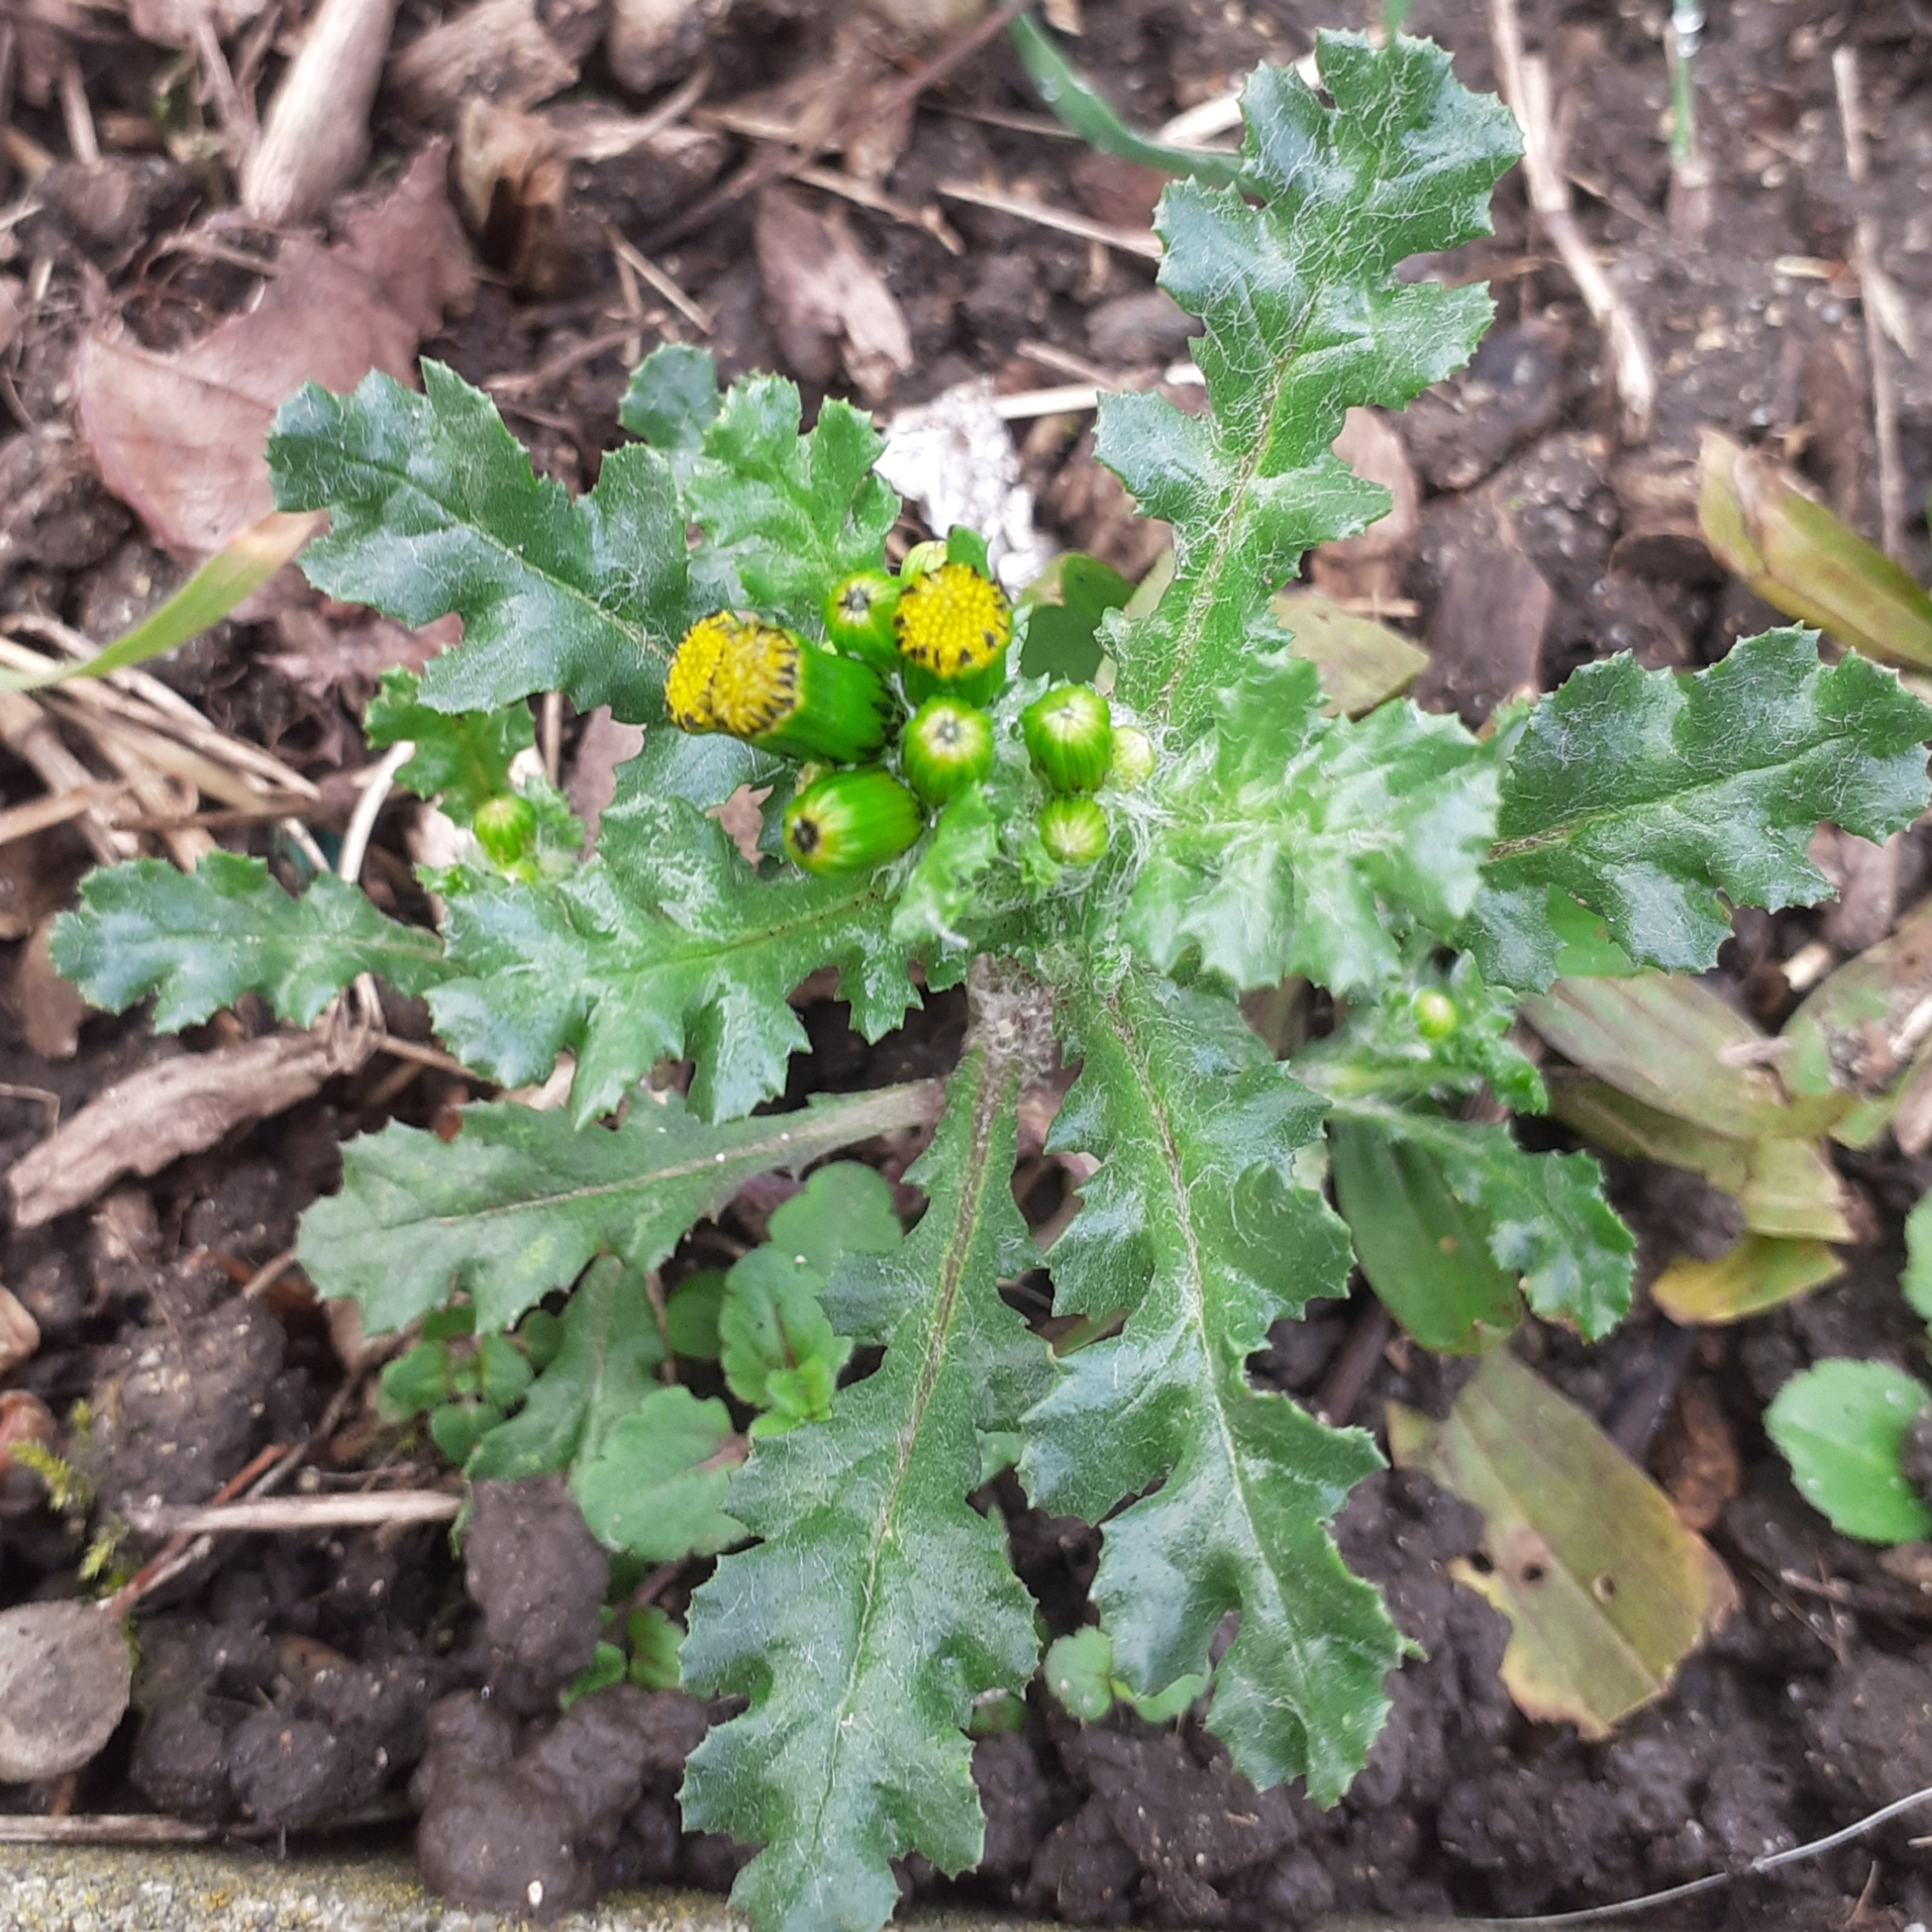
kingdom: Plantae
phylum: Tracheophyta
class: Magnoliopsida
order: Asterales
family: Asteraceae
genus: Senecio
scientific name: Senecio vulgaris
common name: Old-man-in-the-spring
